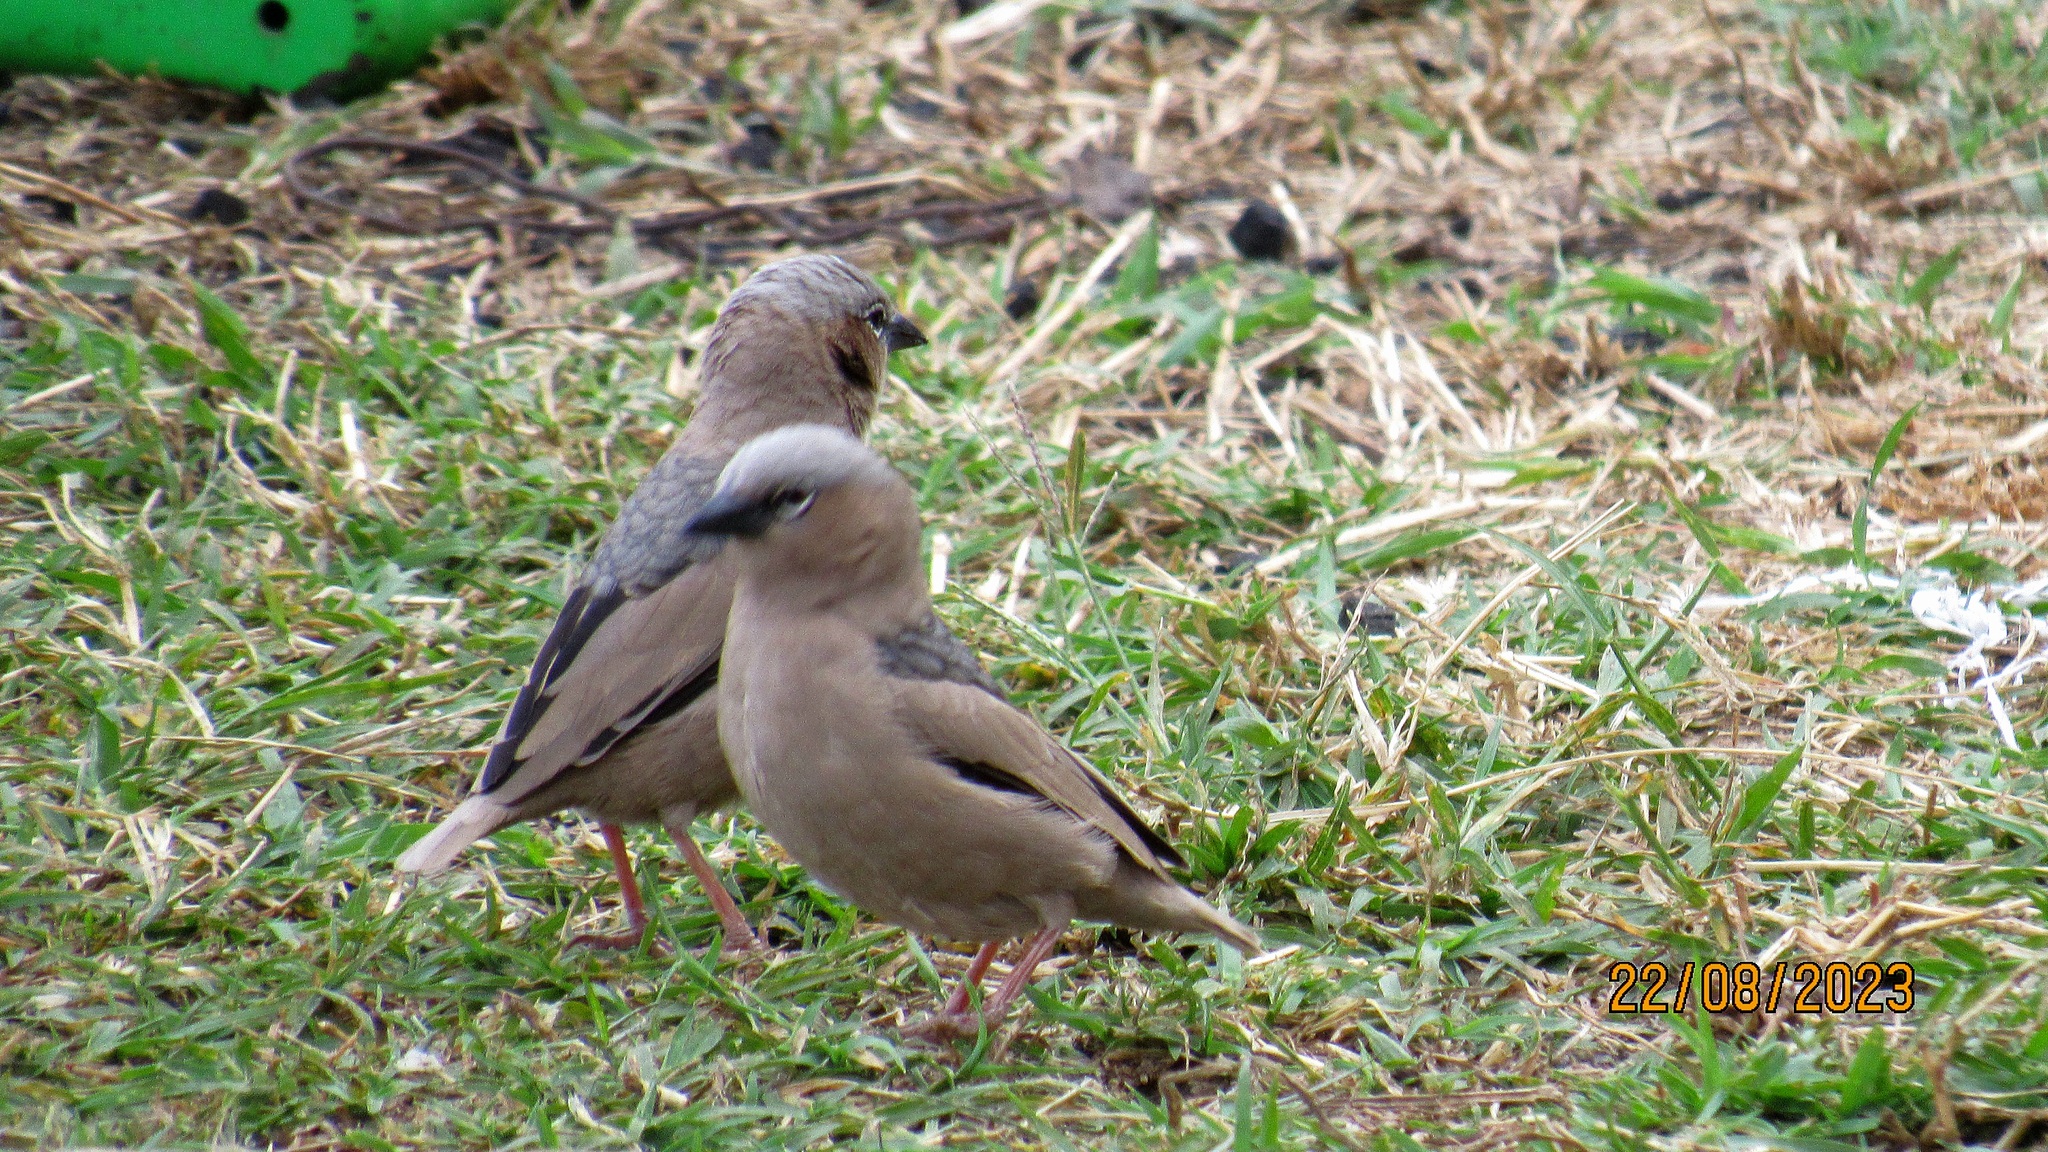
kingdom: Animalia
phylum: Chordata
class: Aves
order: Passeriformes
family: Passeridae
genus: Pseudonigrita
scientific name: Pseudonigrita arnaudi
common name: Grey-capped social weaver
